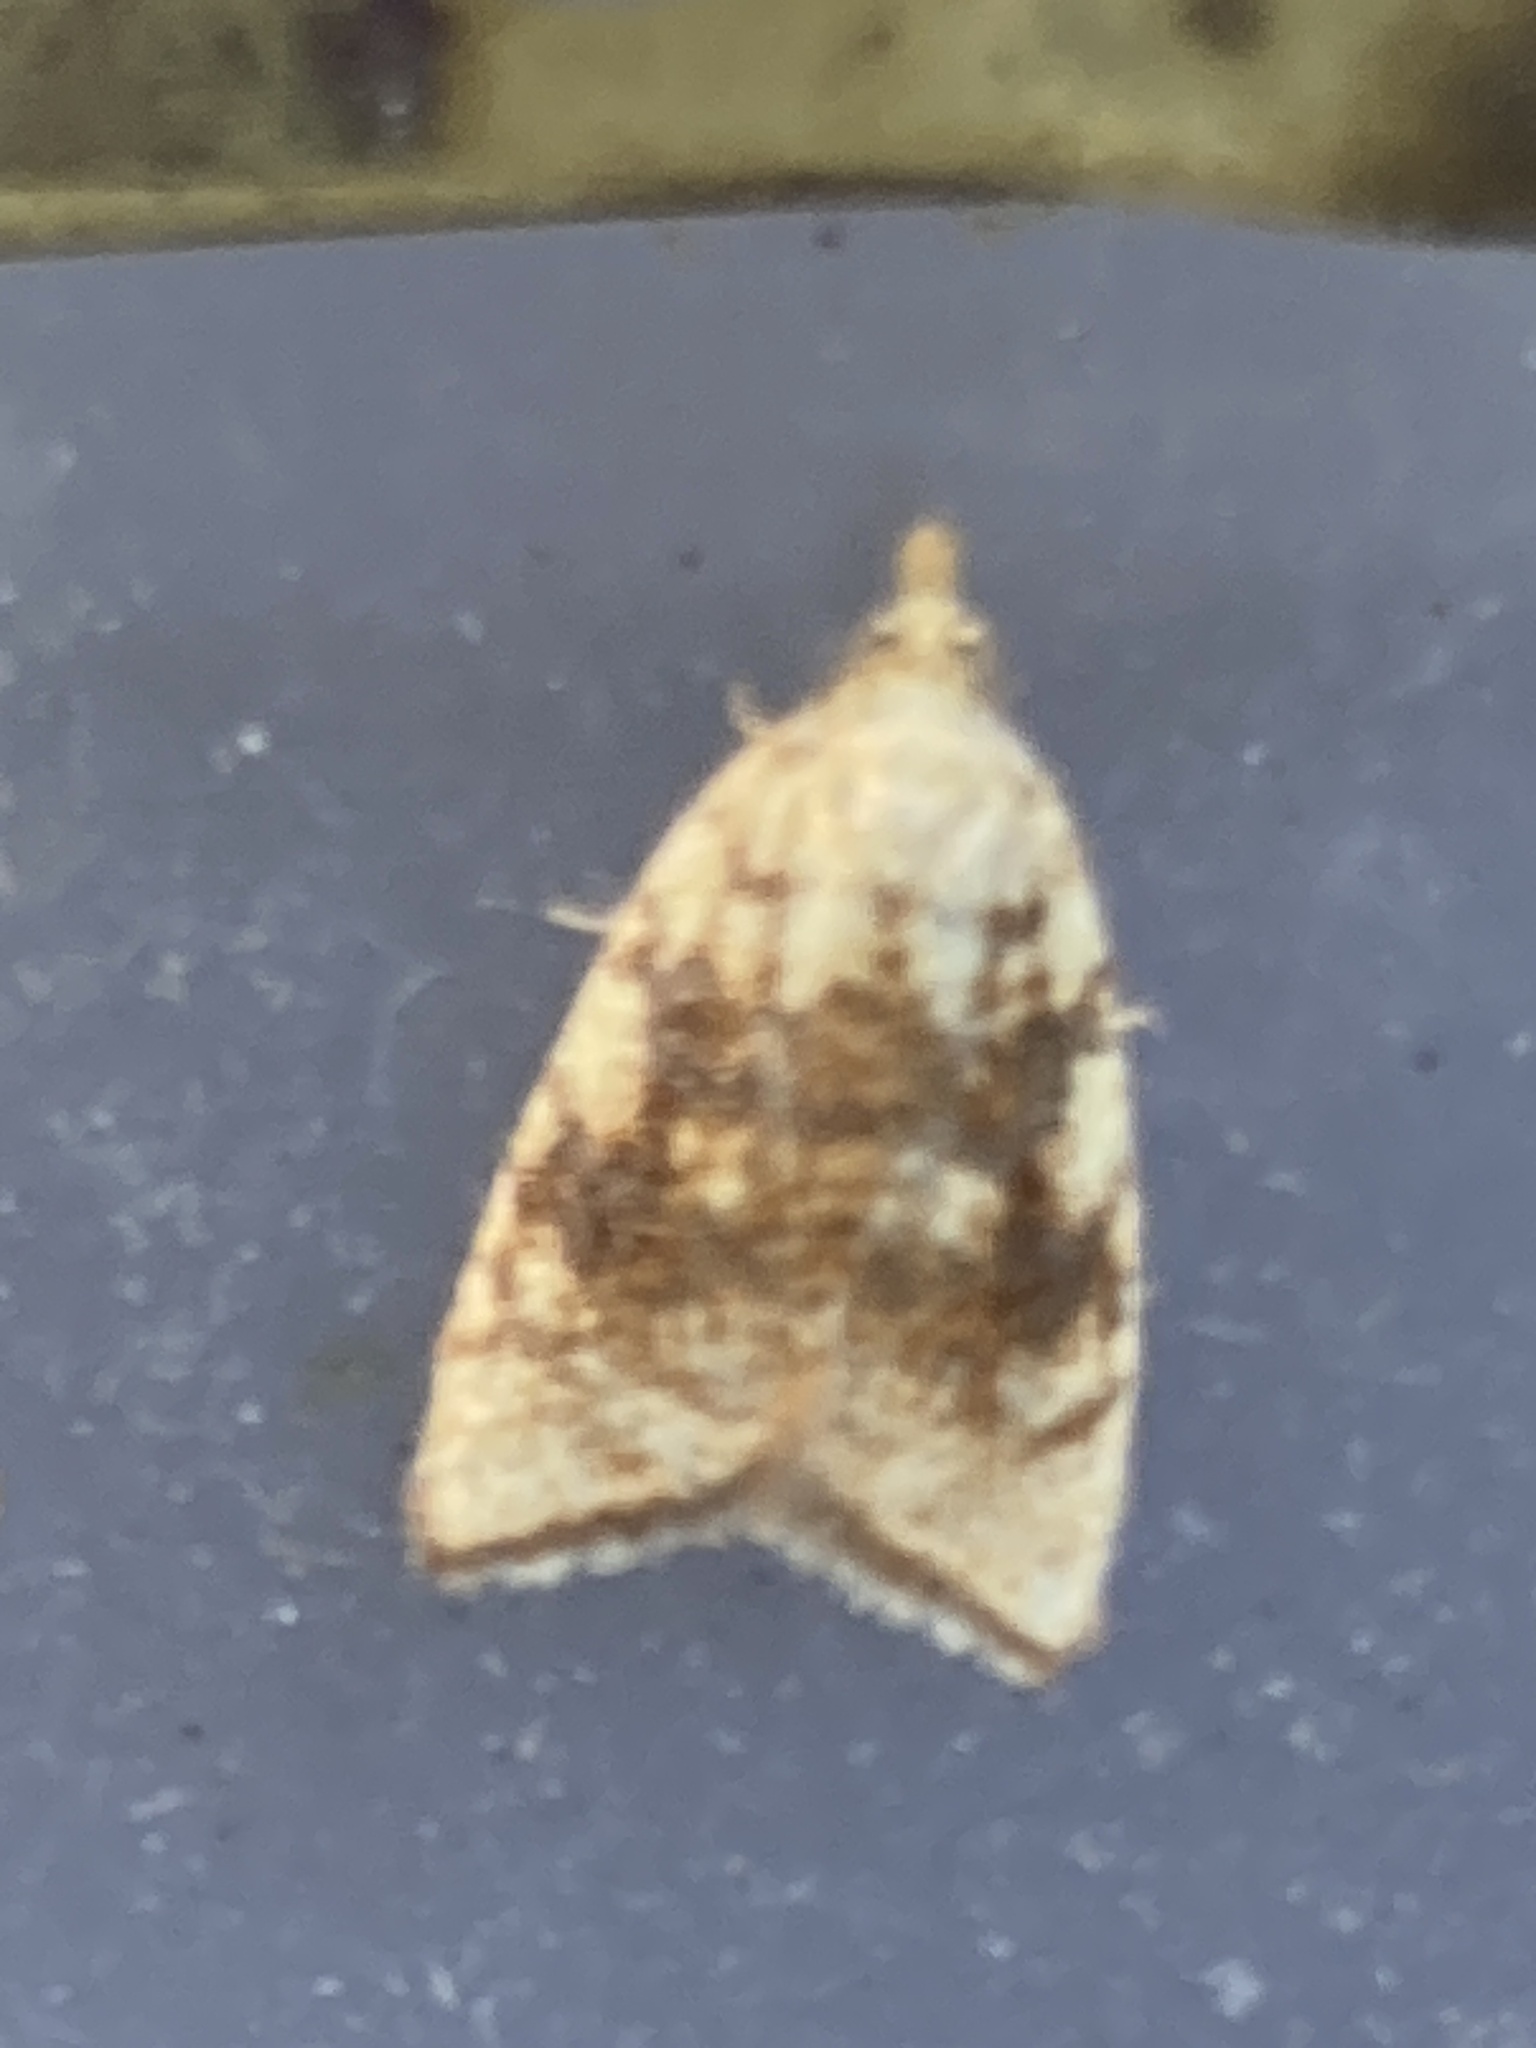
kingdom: Animalia
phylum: Arthropoda
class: Insecta
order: Lepidoptera
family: Tortricidae
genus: Aleimma
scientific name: Aleimma loeflingiana
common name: Yellow oak button
